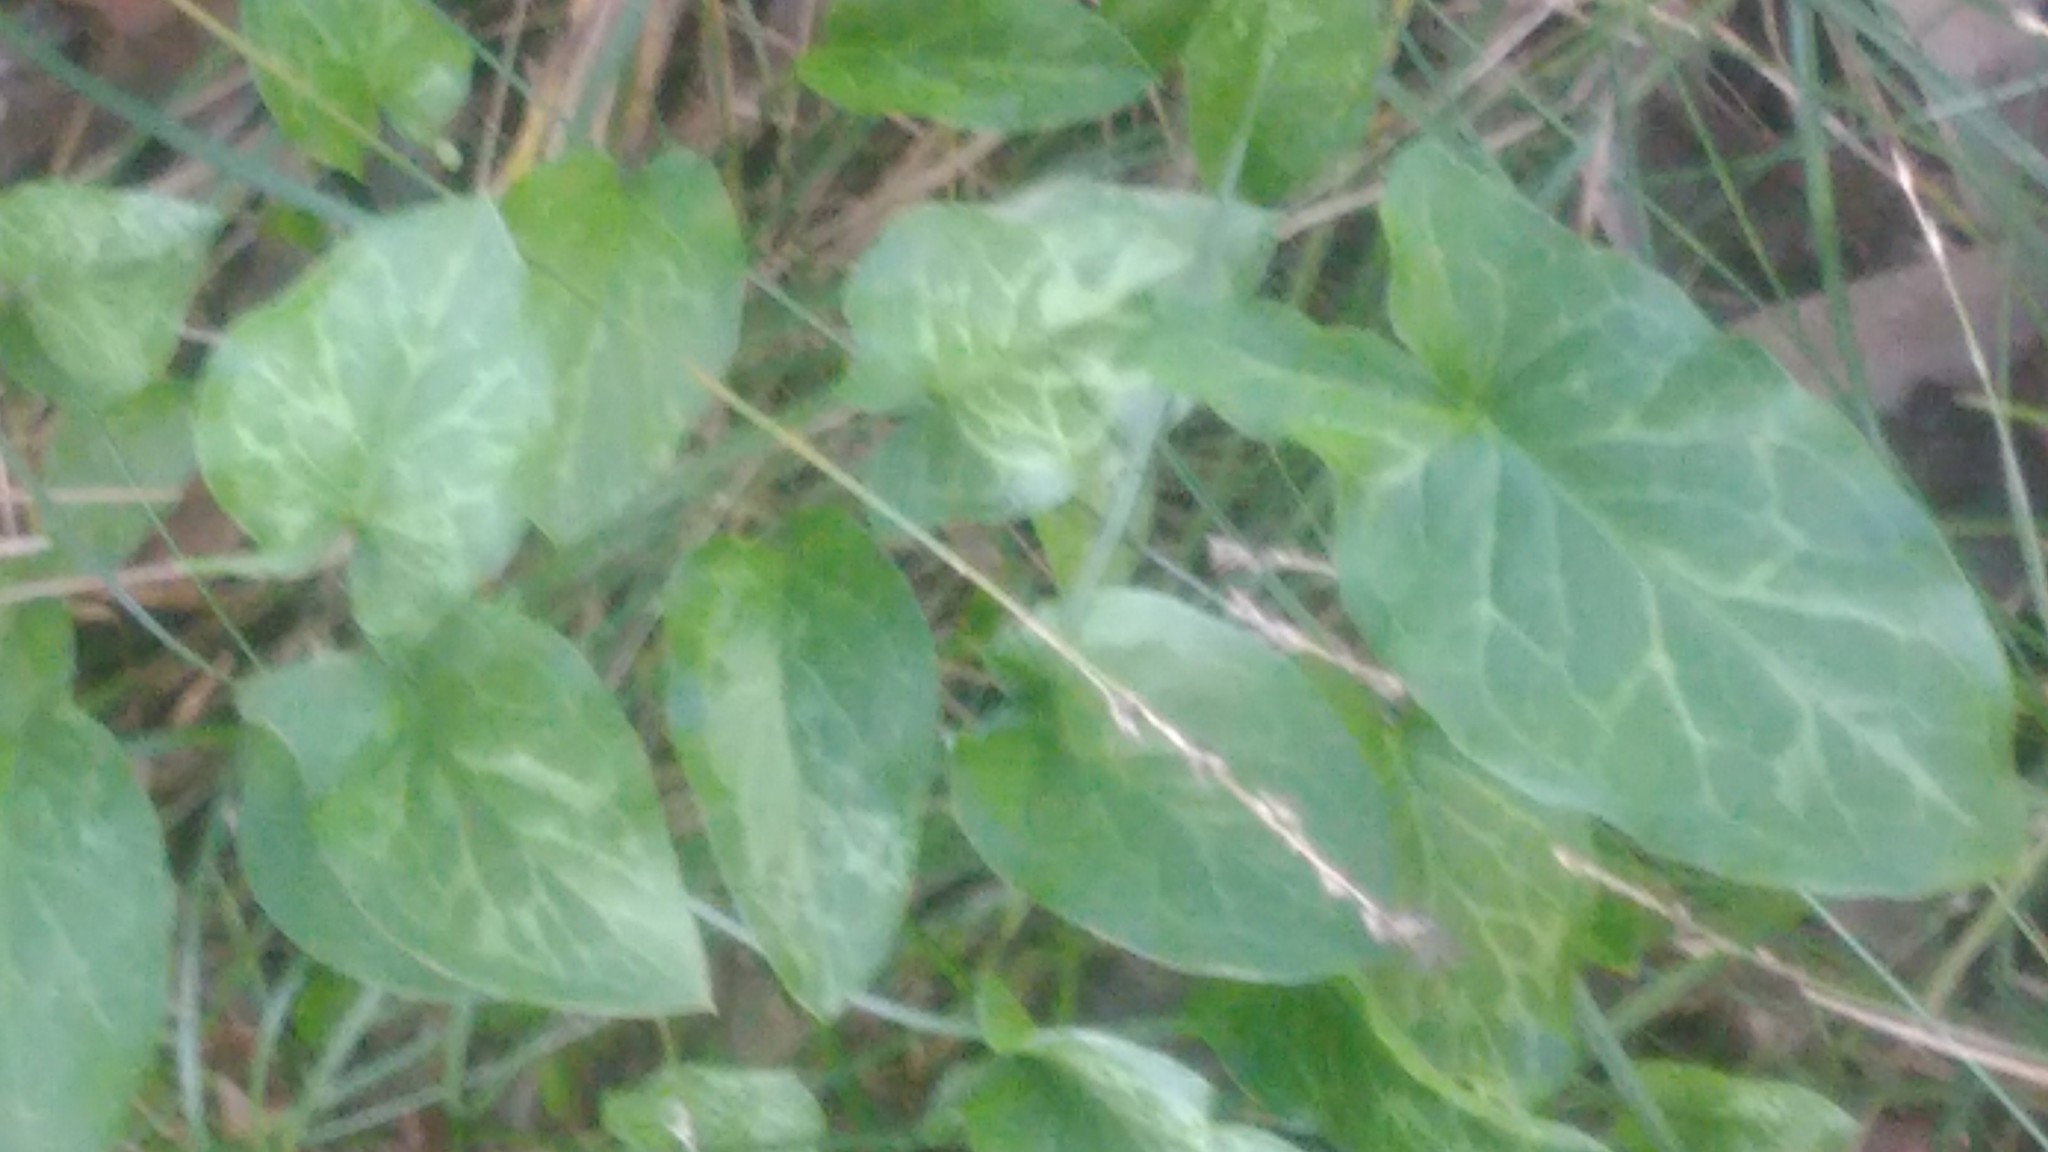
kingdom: Plantae
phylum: Tracheophyta
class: Liliopsida
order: Alismatales
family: Araceae
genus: Arum
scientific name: Arum italicum
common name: Italian lords-and-ladies
